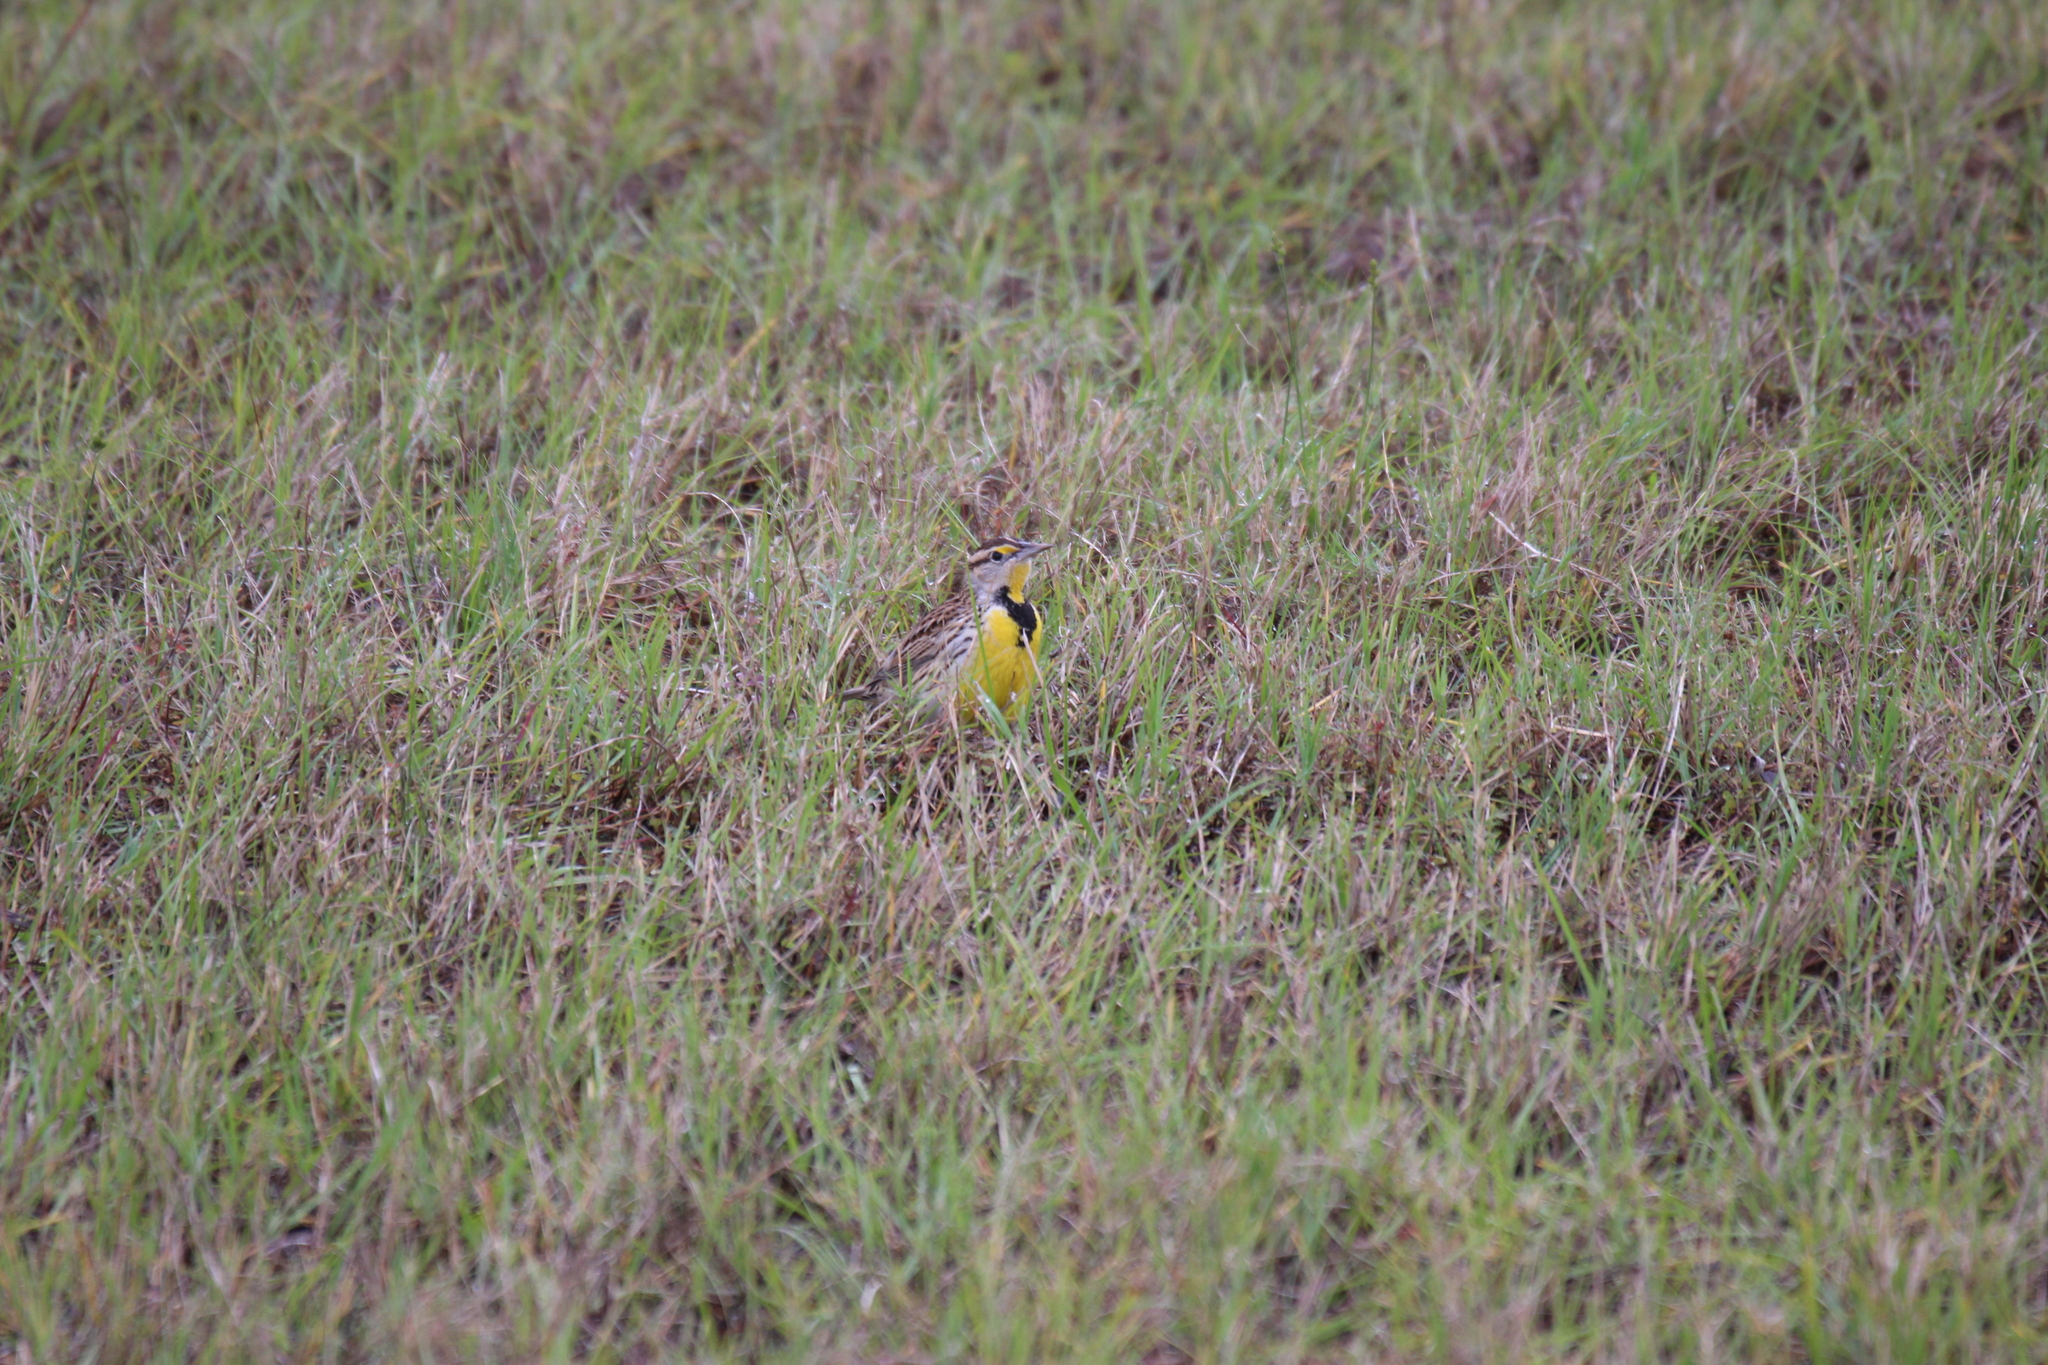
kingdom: Animalia
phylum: Chordata
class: Aves
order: Passeriformes
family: Icteridae
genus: Sturnella
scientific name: Sturnella magna
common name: Eastern meadowlark
